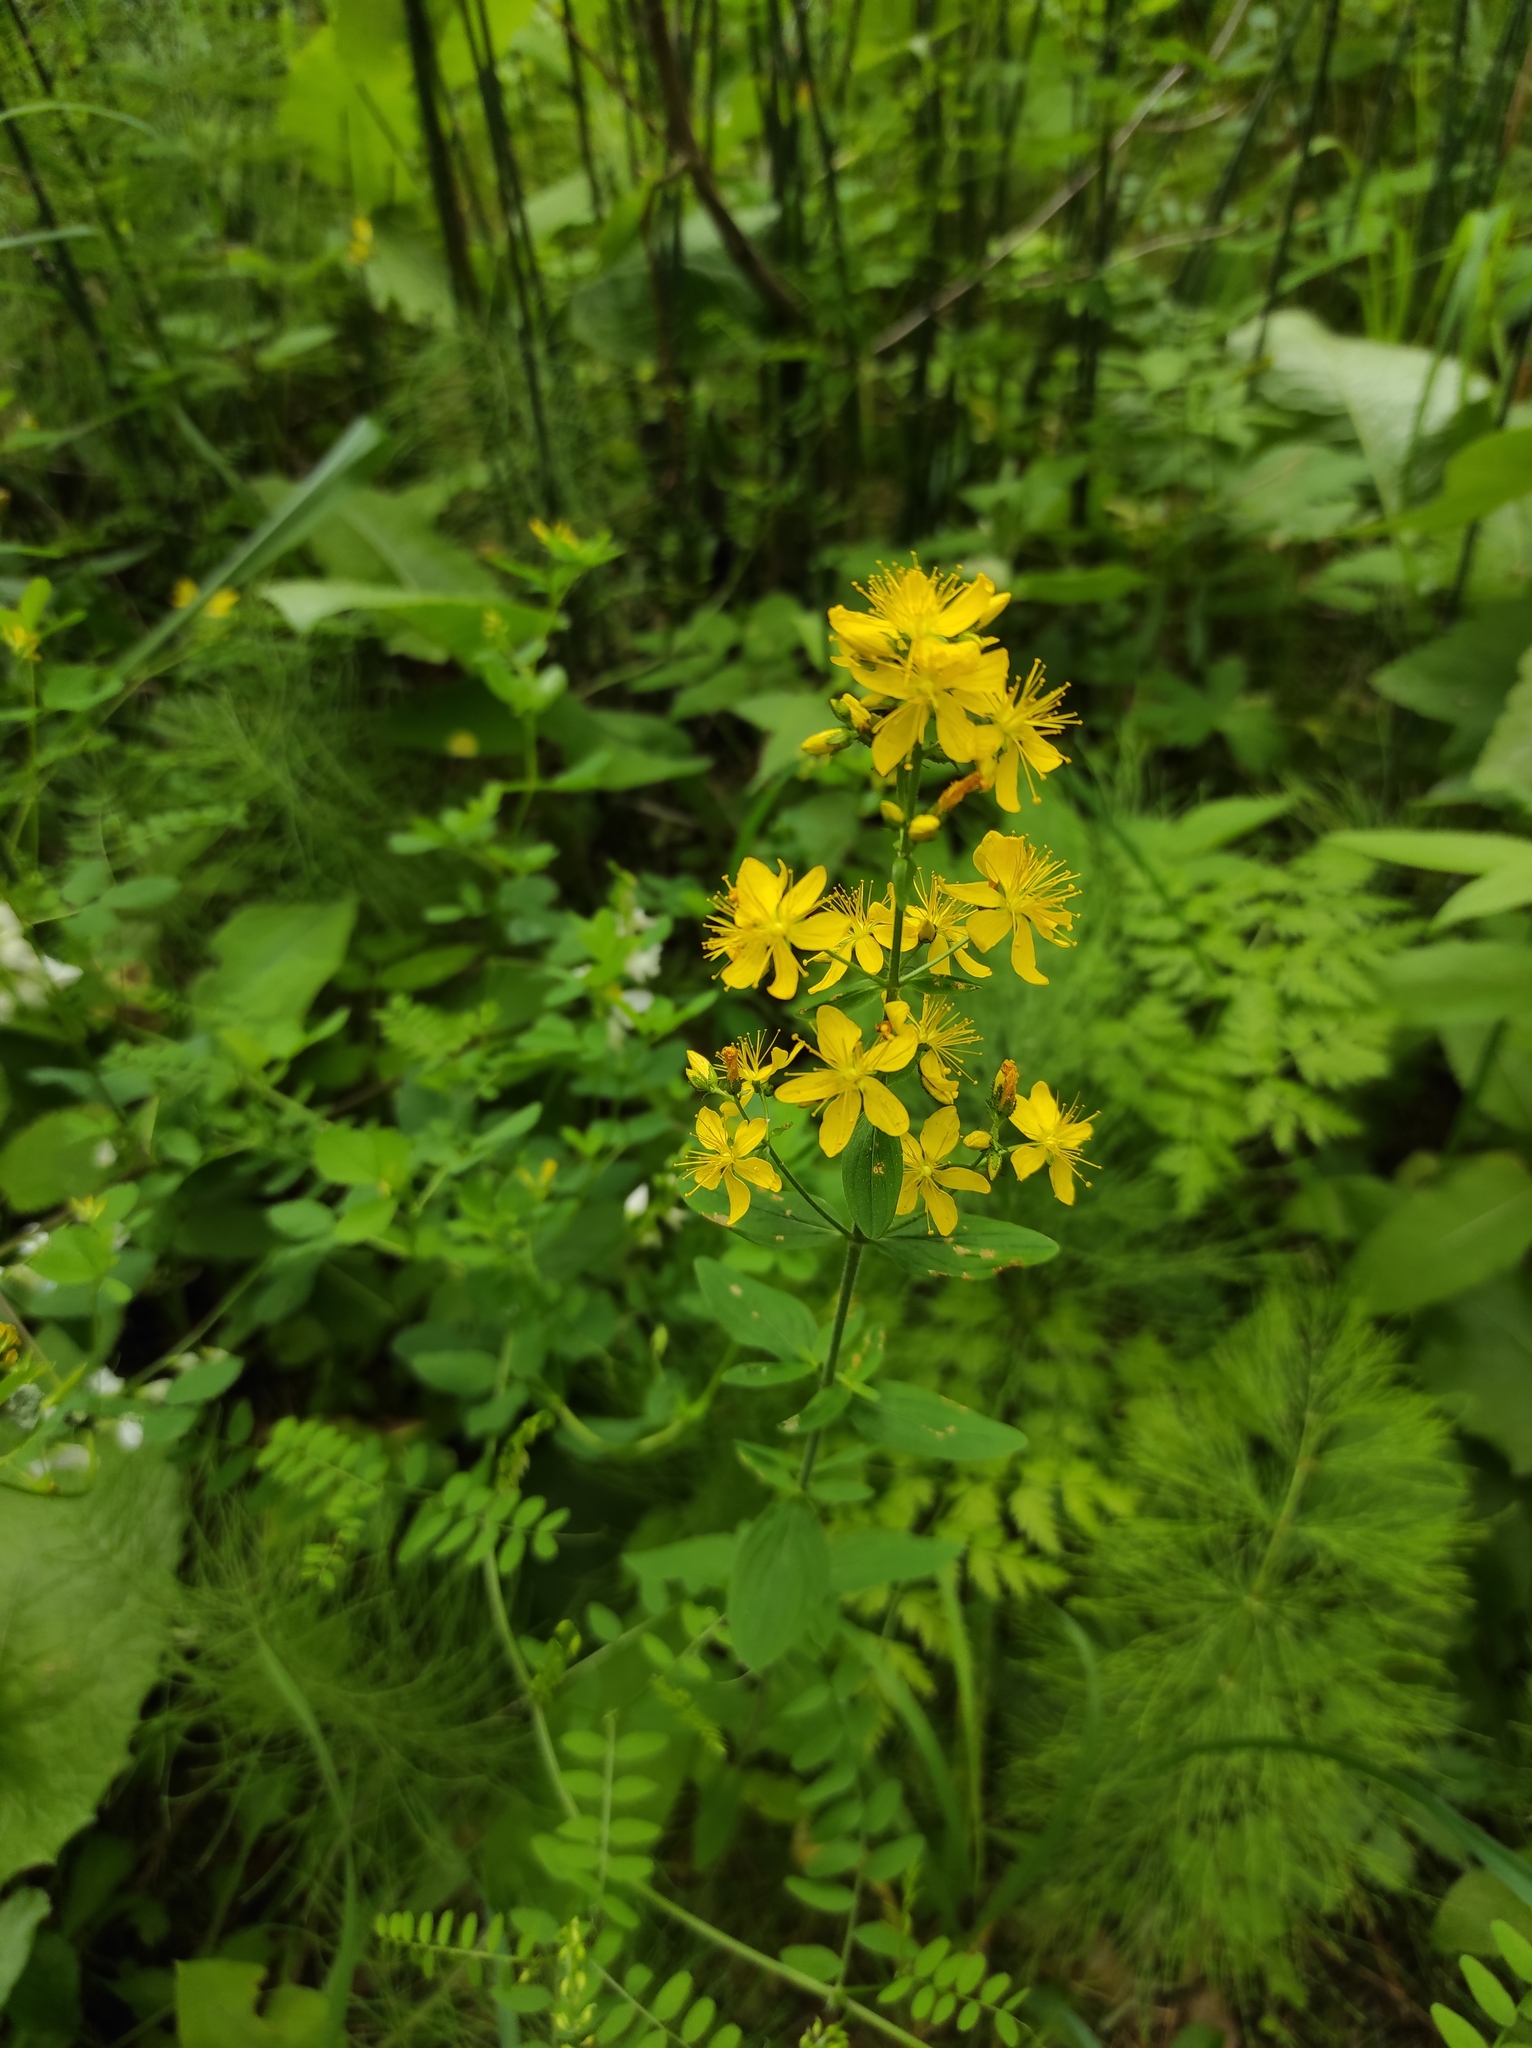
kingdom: Plantae
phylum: Tracheophyta
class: Magnoliopsida
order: Malpighiales
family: Hypericaceae
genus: Hypericum
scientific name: Hypericum hirsutum
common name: Hairy st. john's-wort
